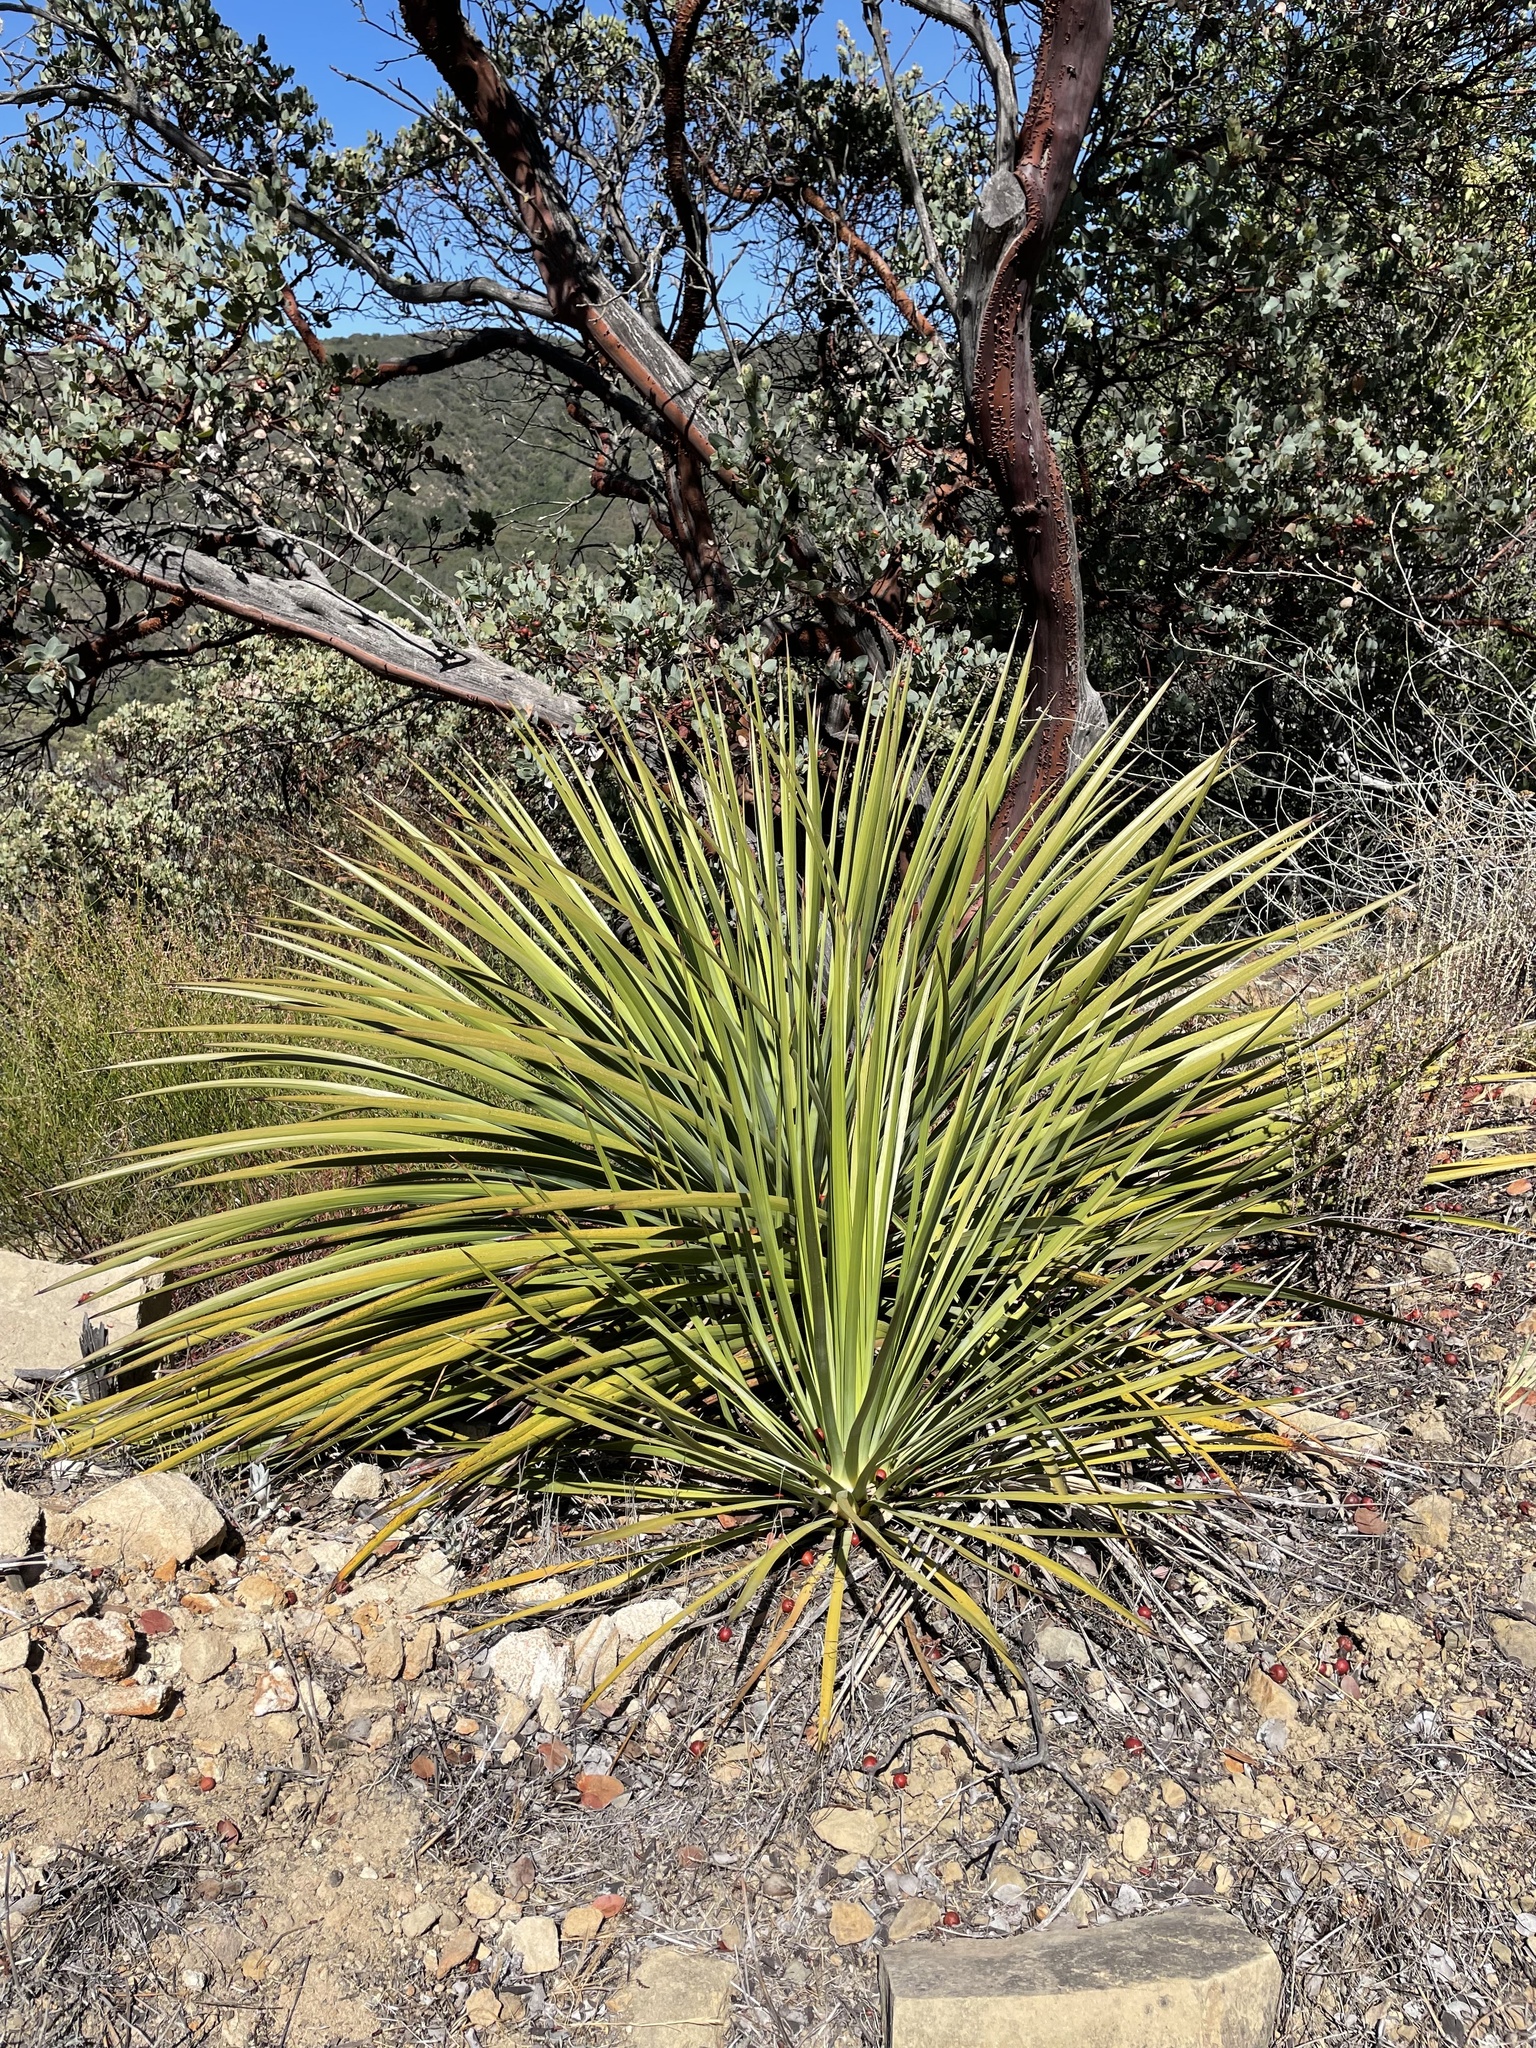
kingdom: Plantae
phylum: Tracheophyta
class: Liliopsida
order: Asparagales
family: Asparagaceae
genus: Hesperoyucca
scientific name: Hesperoyucca whipplei
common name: Our lord's-candle
